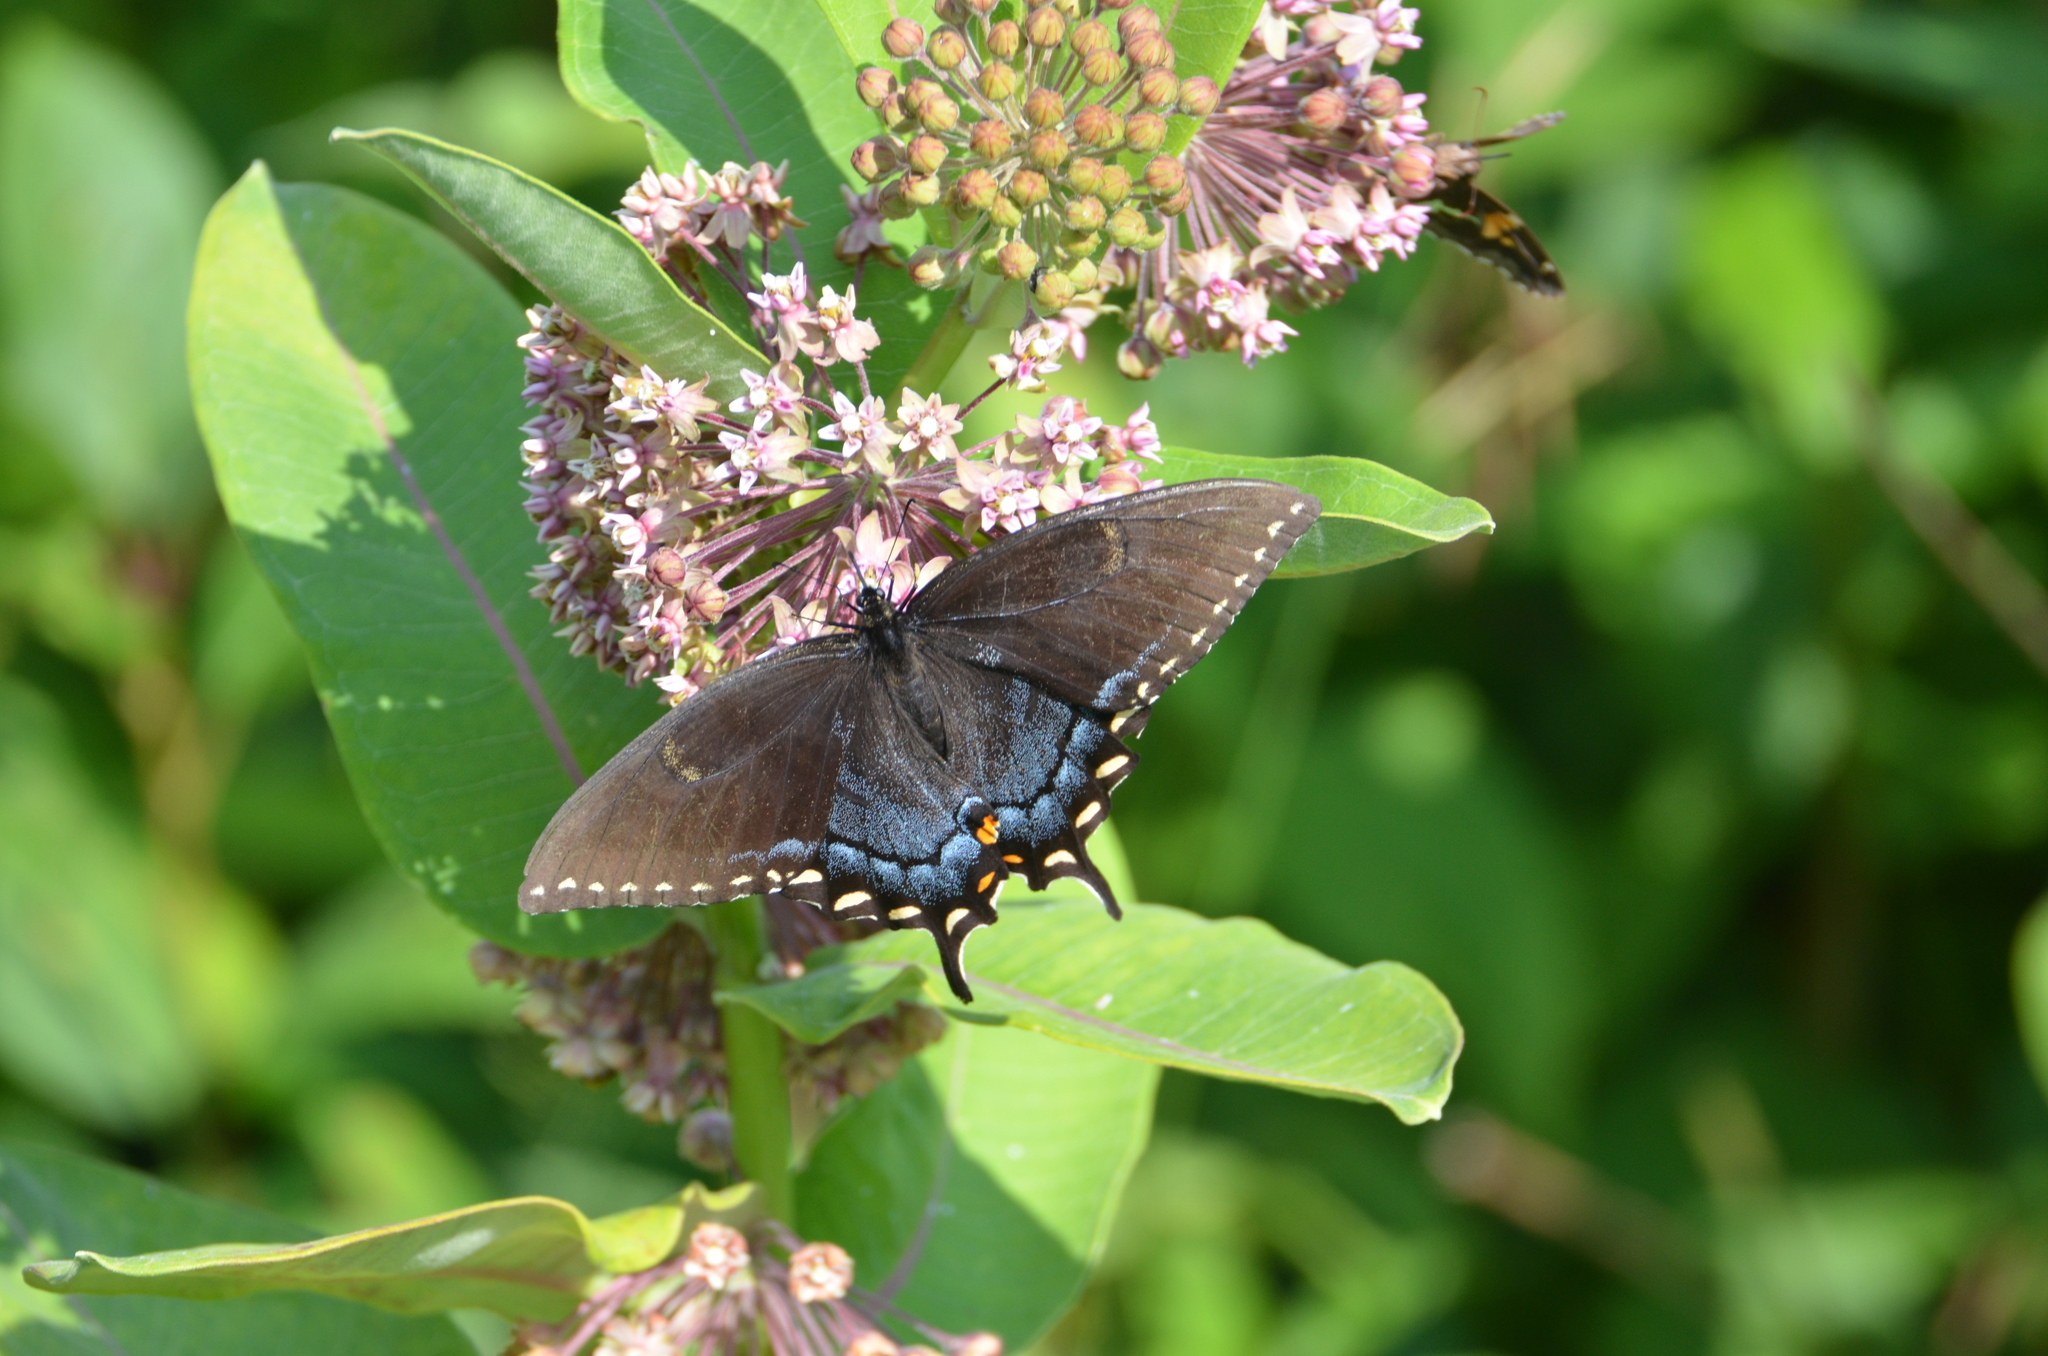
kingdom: Animalia
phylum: Arthropoda
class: Insecta
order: Lepidoptera
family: Papilionidae
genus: Papilio
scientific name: Papilio glaucus
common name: Tiger swallowtail
